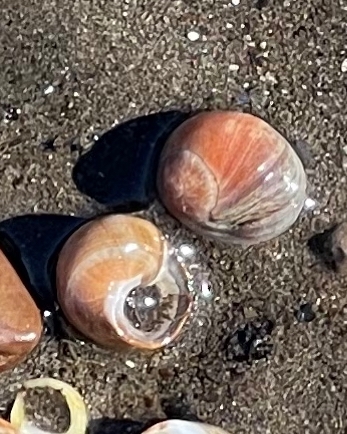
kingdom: Animalia
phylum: Mollusca
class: Gastropoda
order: Littorinimorpha
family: Littorinidae
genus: Littorina
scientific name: Littorina obtusata
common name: Flat periwinkle
